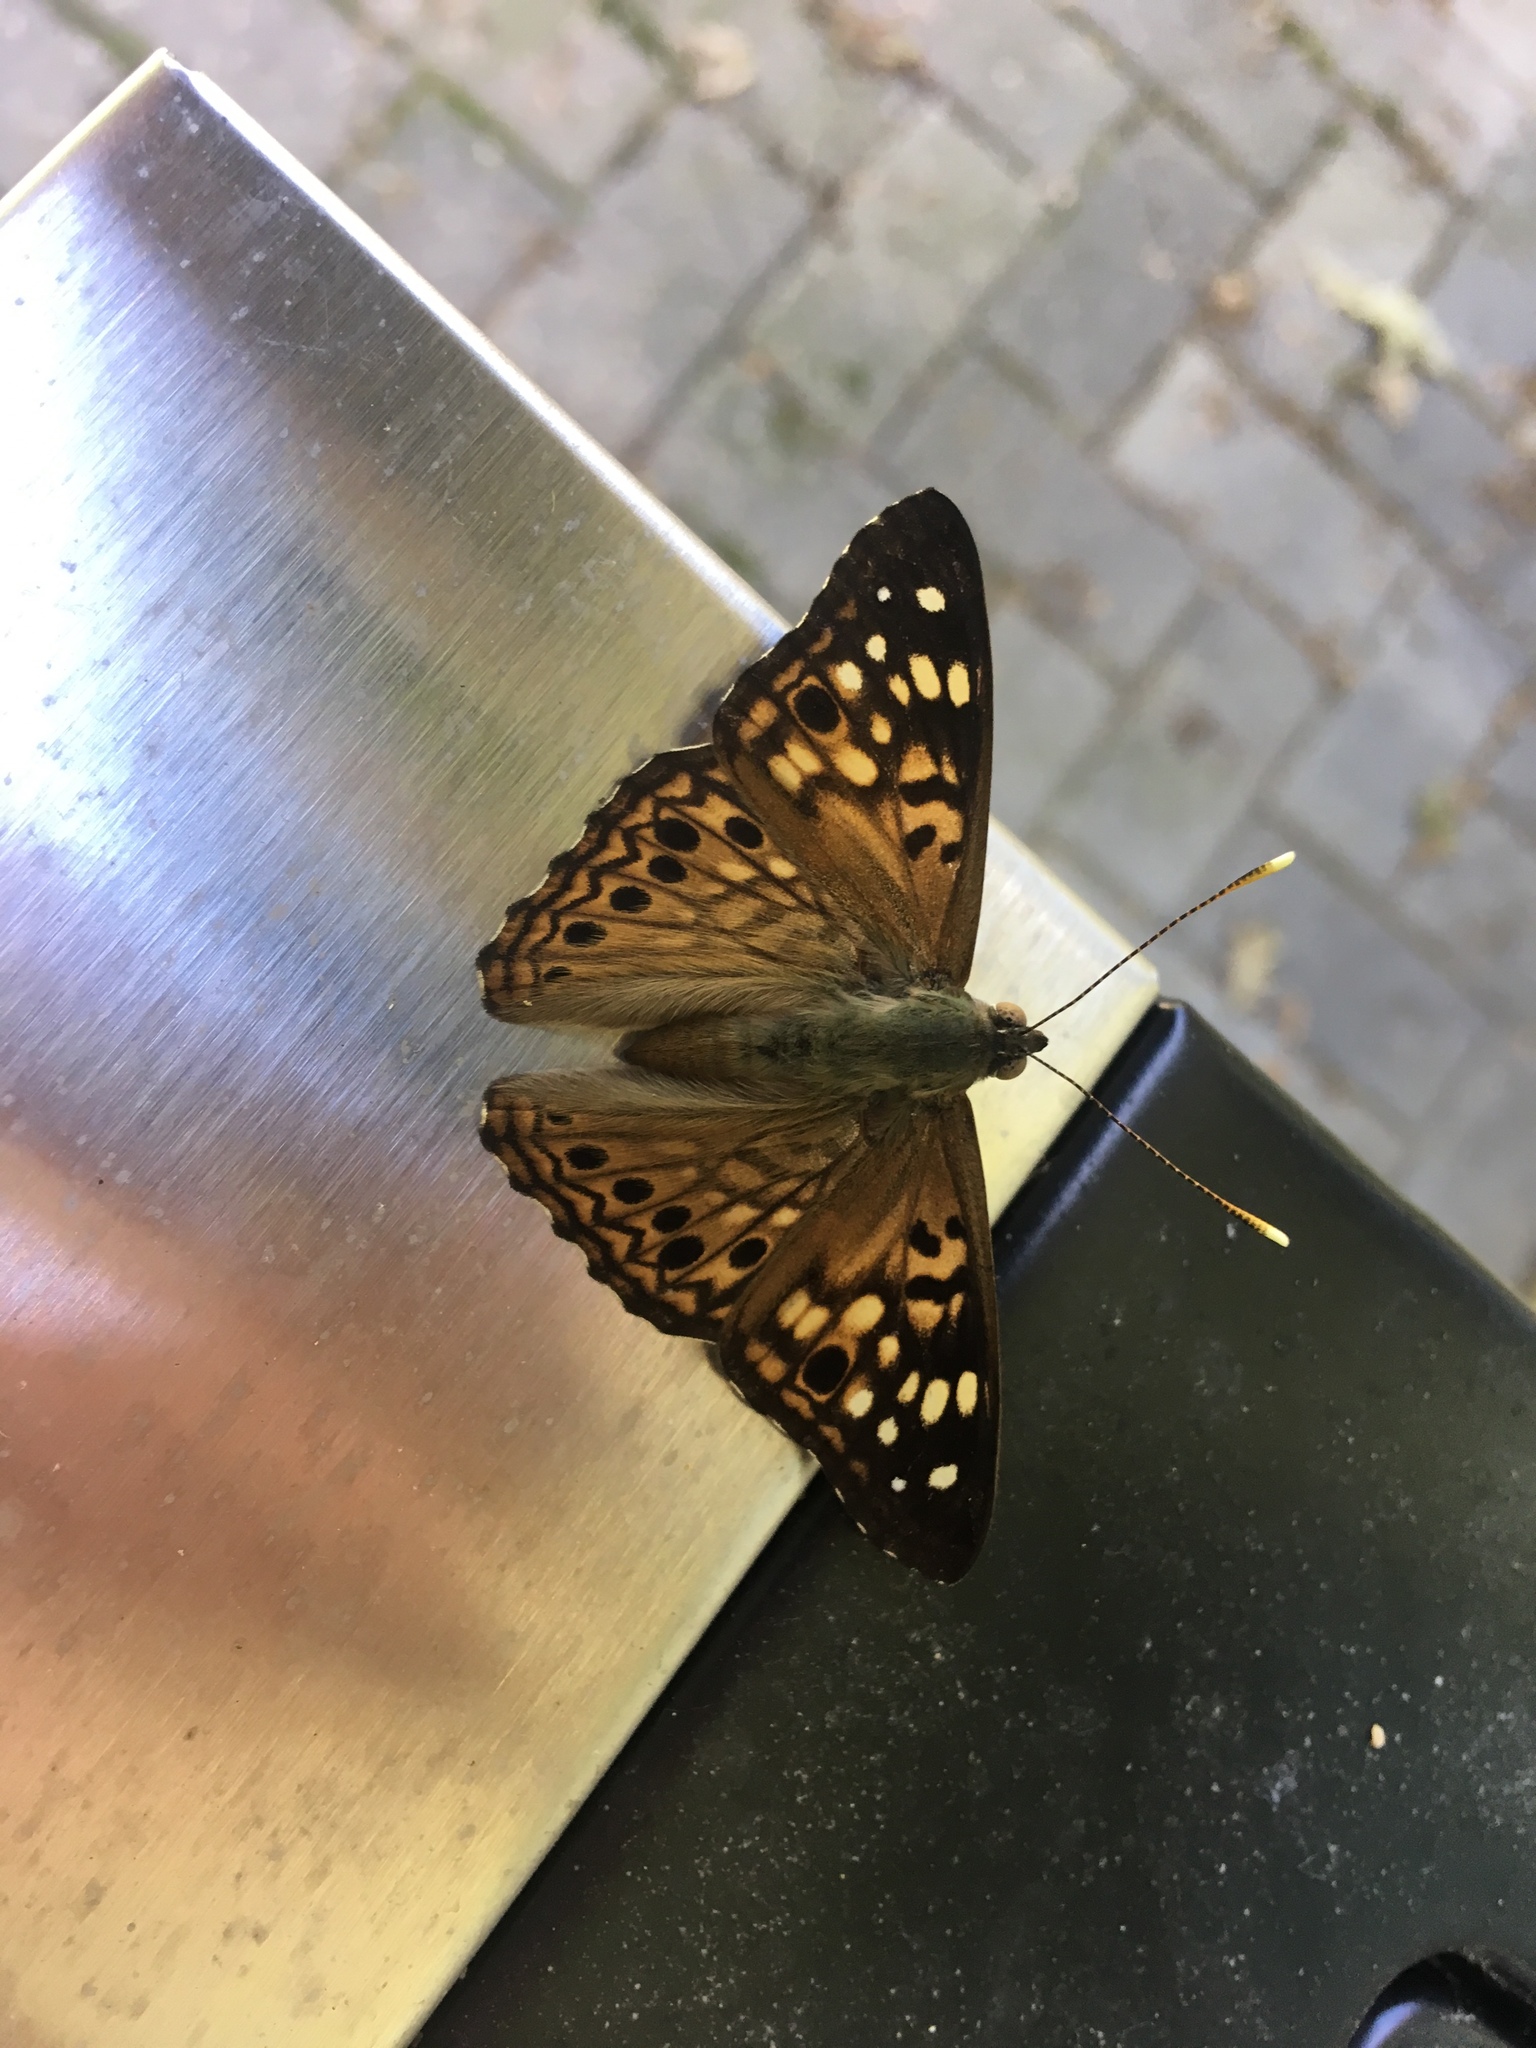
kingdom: Animalia
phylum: Arthropoda
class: Insecta
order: Lepidoptera
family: Nymphalidae
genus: Asterocampa
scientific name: Asterocampa celtis
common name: Hackberry emperor
